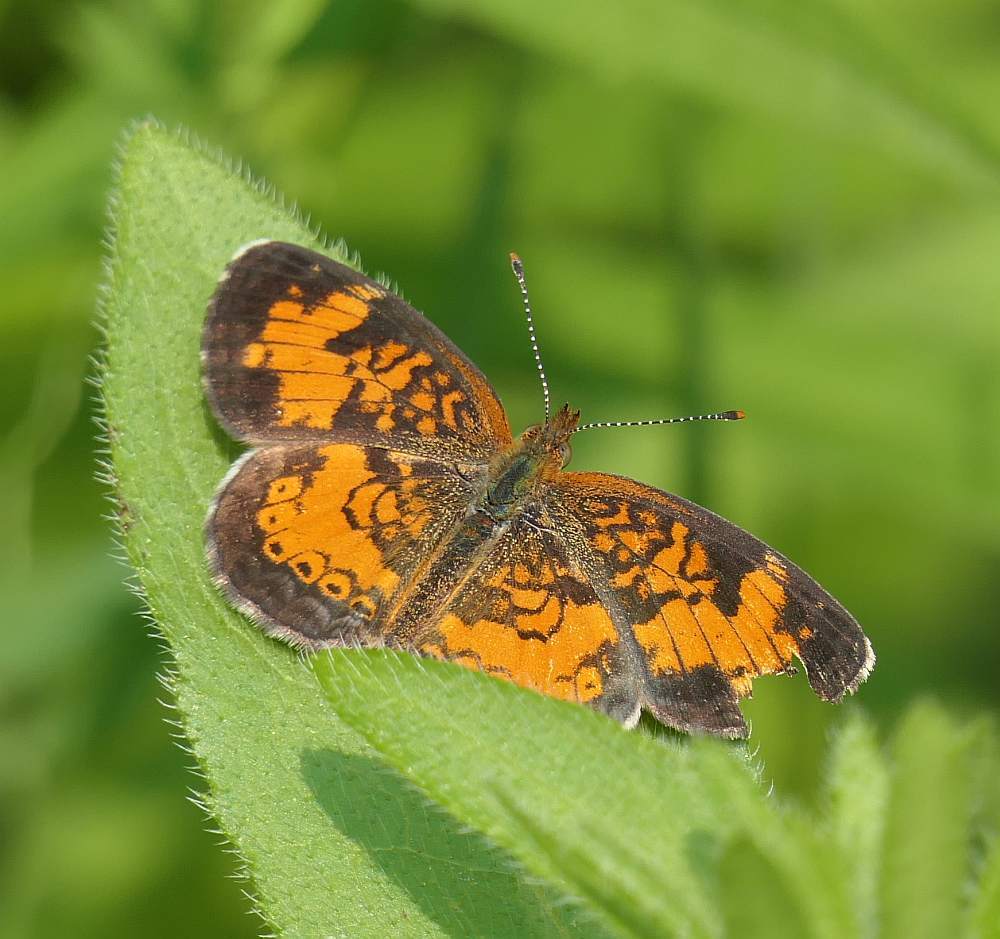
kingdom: Animalia
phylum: Arthropoda
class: Insecta
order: Lepidoptera
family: Nymphalidae
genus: Phyciodes
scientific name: Phyciodes tharos
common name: Pearl crescent
